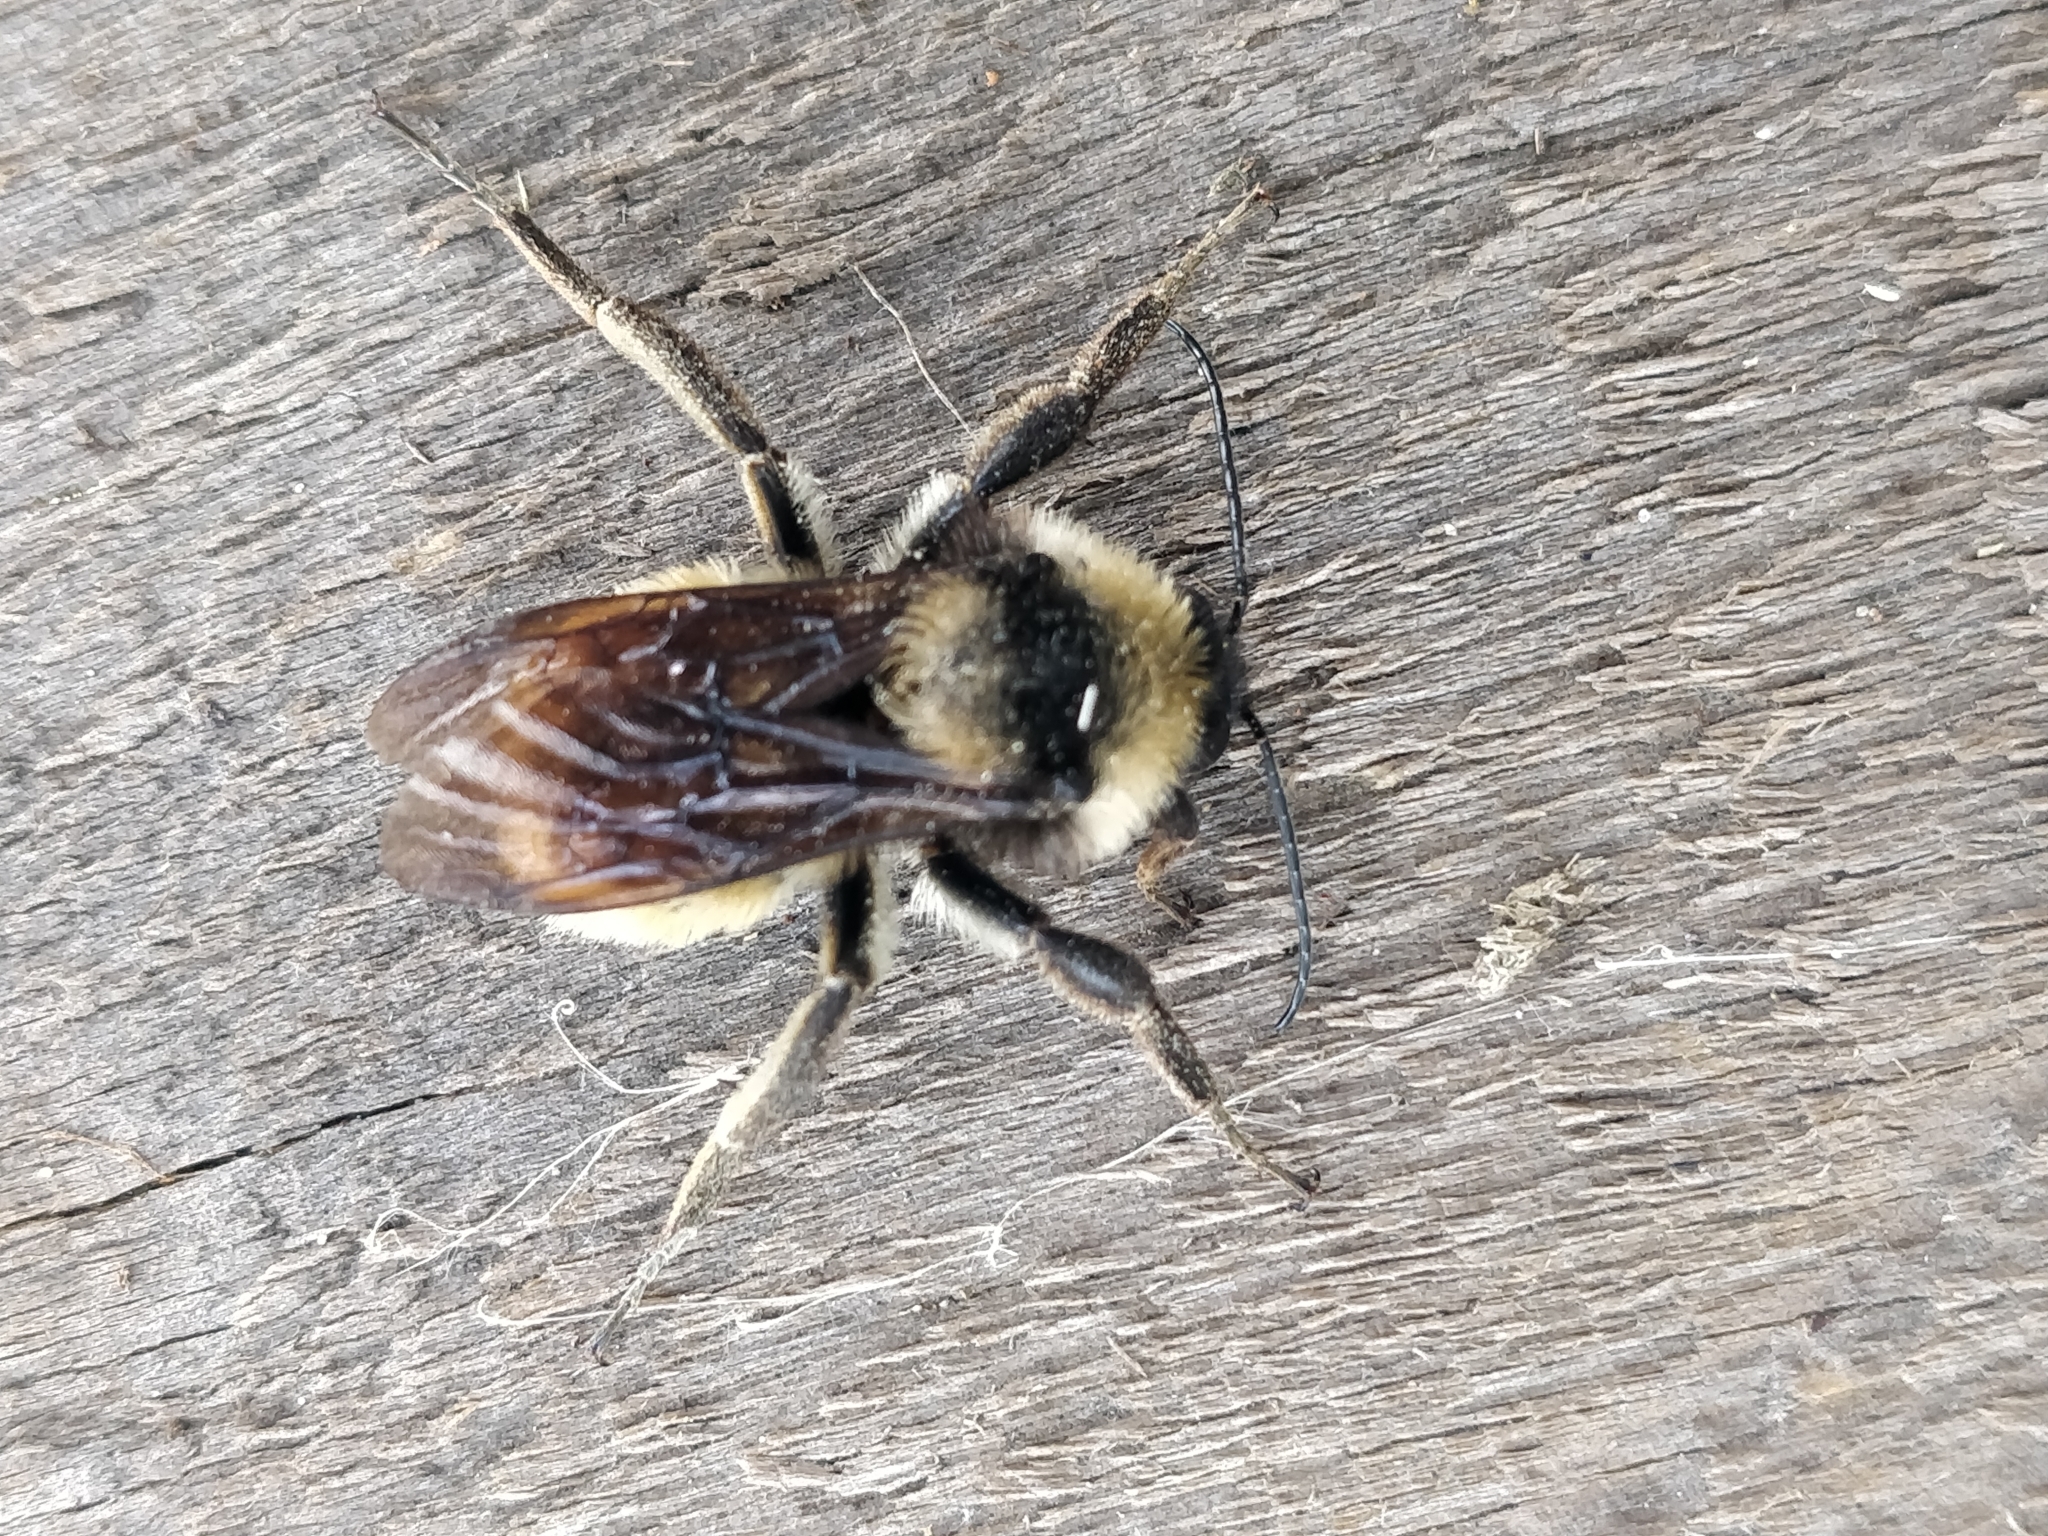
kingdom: Animalia
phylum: Arthropoda
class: Insecta
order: Hymenoptera
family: Apidae
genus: Bombus
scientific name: Bombus pensylvanicus
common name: Bumble bee
